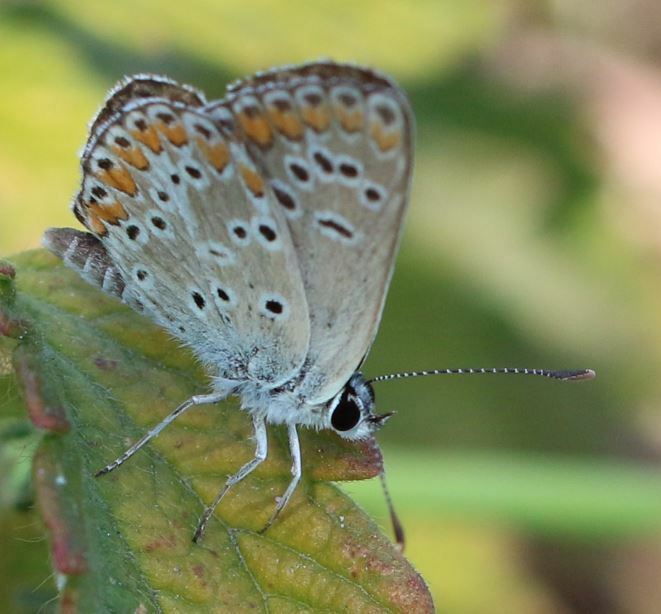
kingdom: Animalia
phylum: Arthropoda
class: Insecta
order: Lepidoptera
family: Lycaenidae
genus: Aricia
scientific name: Aricia agestis
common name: Brown argus
